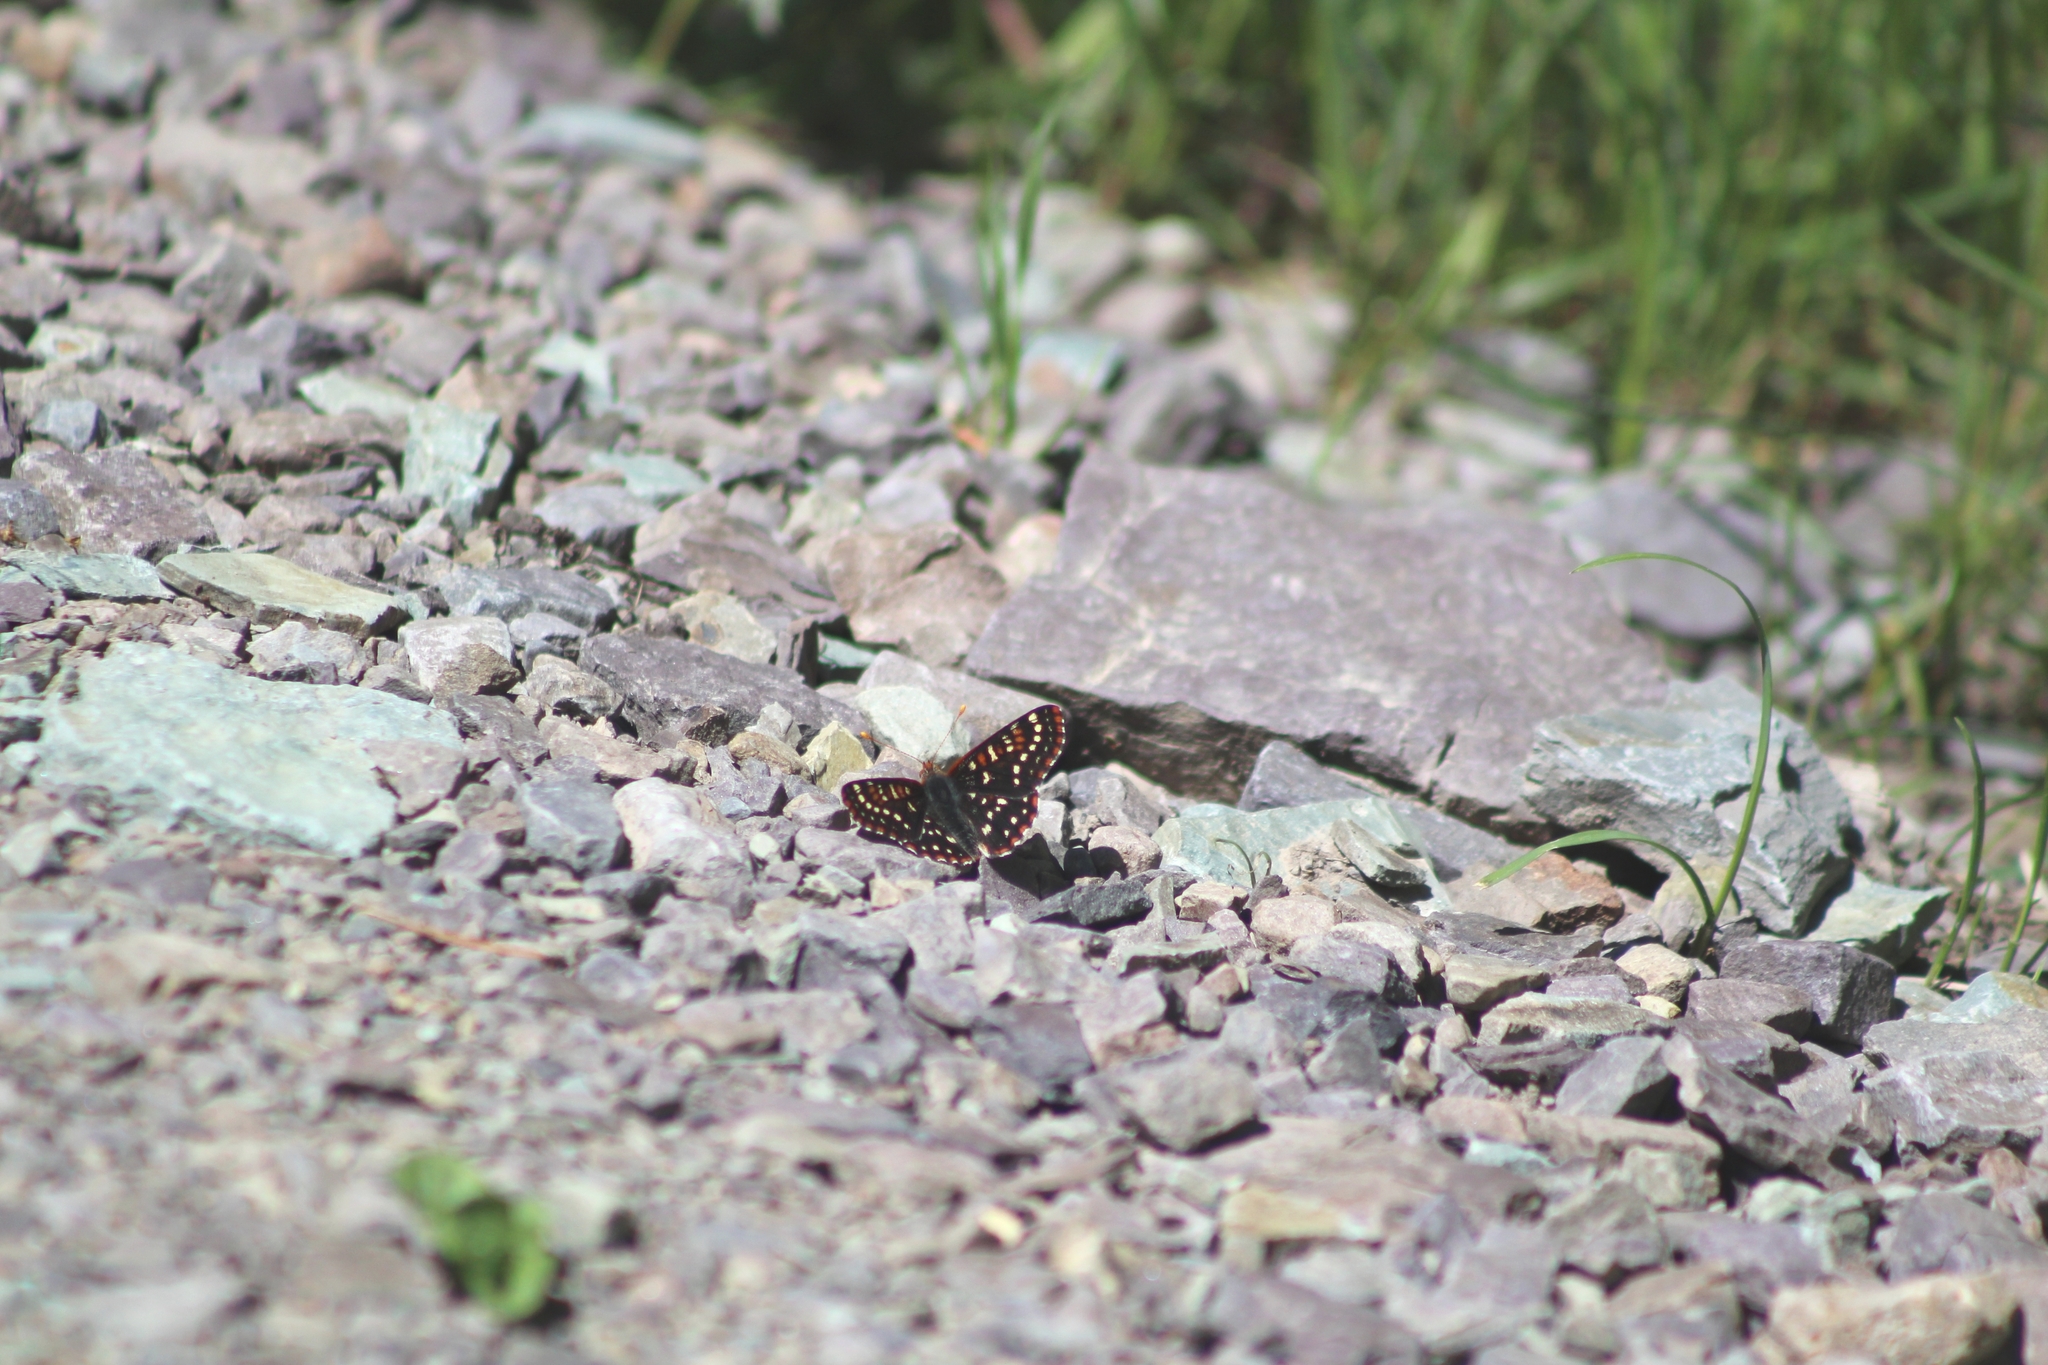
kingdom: Animalia
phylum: Arthropoda
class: Insecta
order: Lepidoptera
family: Nymphalidae
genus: Occidryas
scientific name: Occidryas colon
